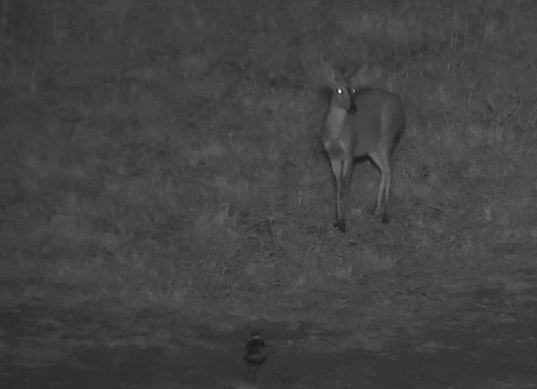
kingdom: Animalia
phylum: Chordata
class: Mammalia
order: Artiodactyla
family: Bovidae
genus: Sylvicapra
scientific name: Sylvicapra grimmia
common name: Bush duiker
